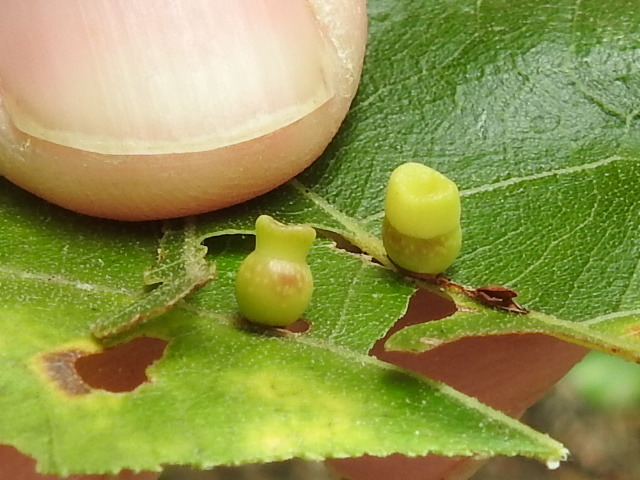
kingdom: Animalia
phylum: Arthropoda
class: Insecta
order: Hymenoptera
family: Cynipidae
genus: Kokkocynips
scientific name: Kokkocynips rileyi
